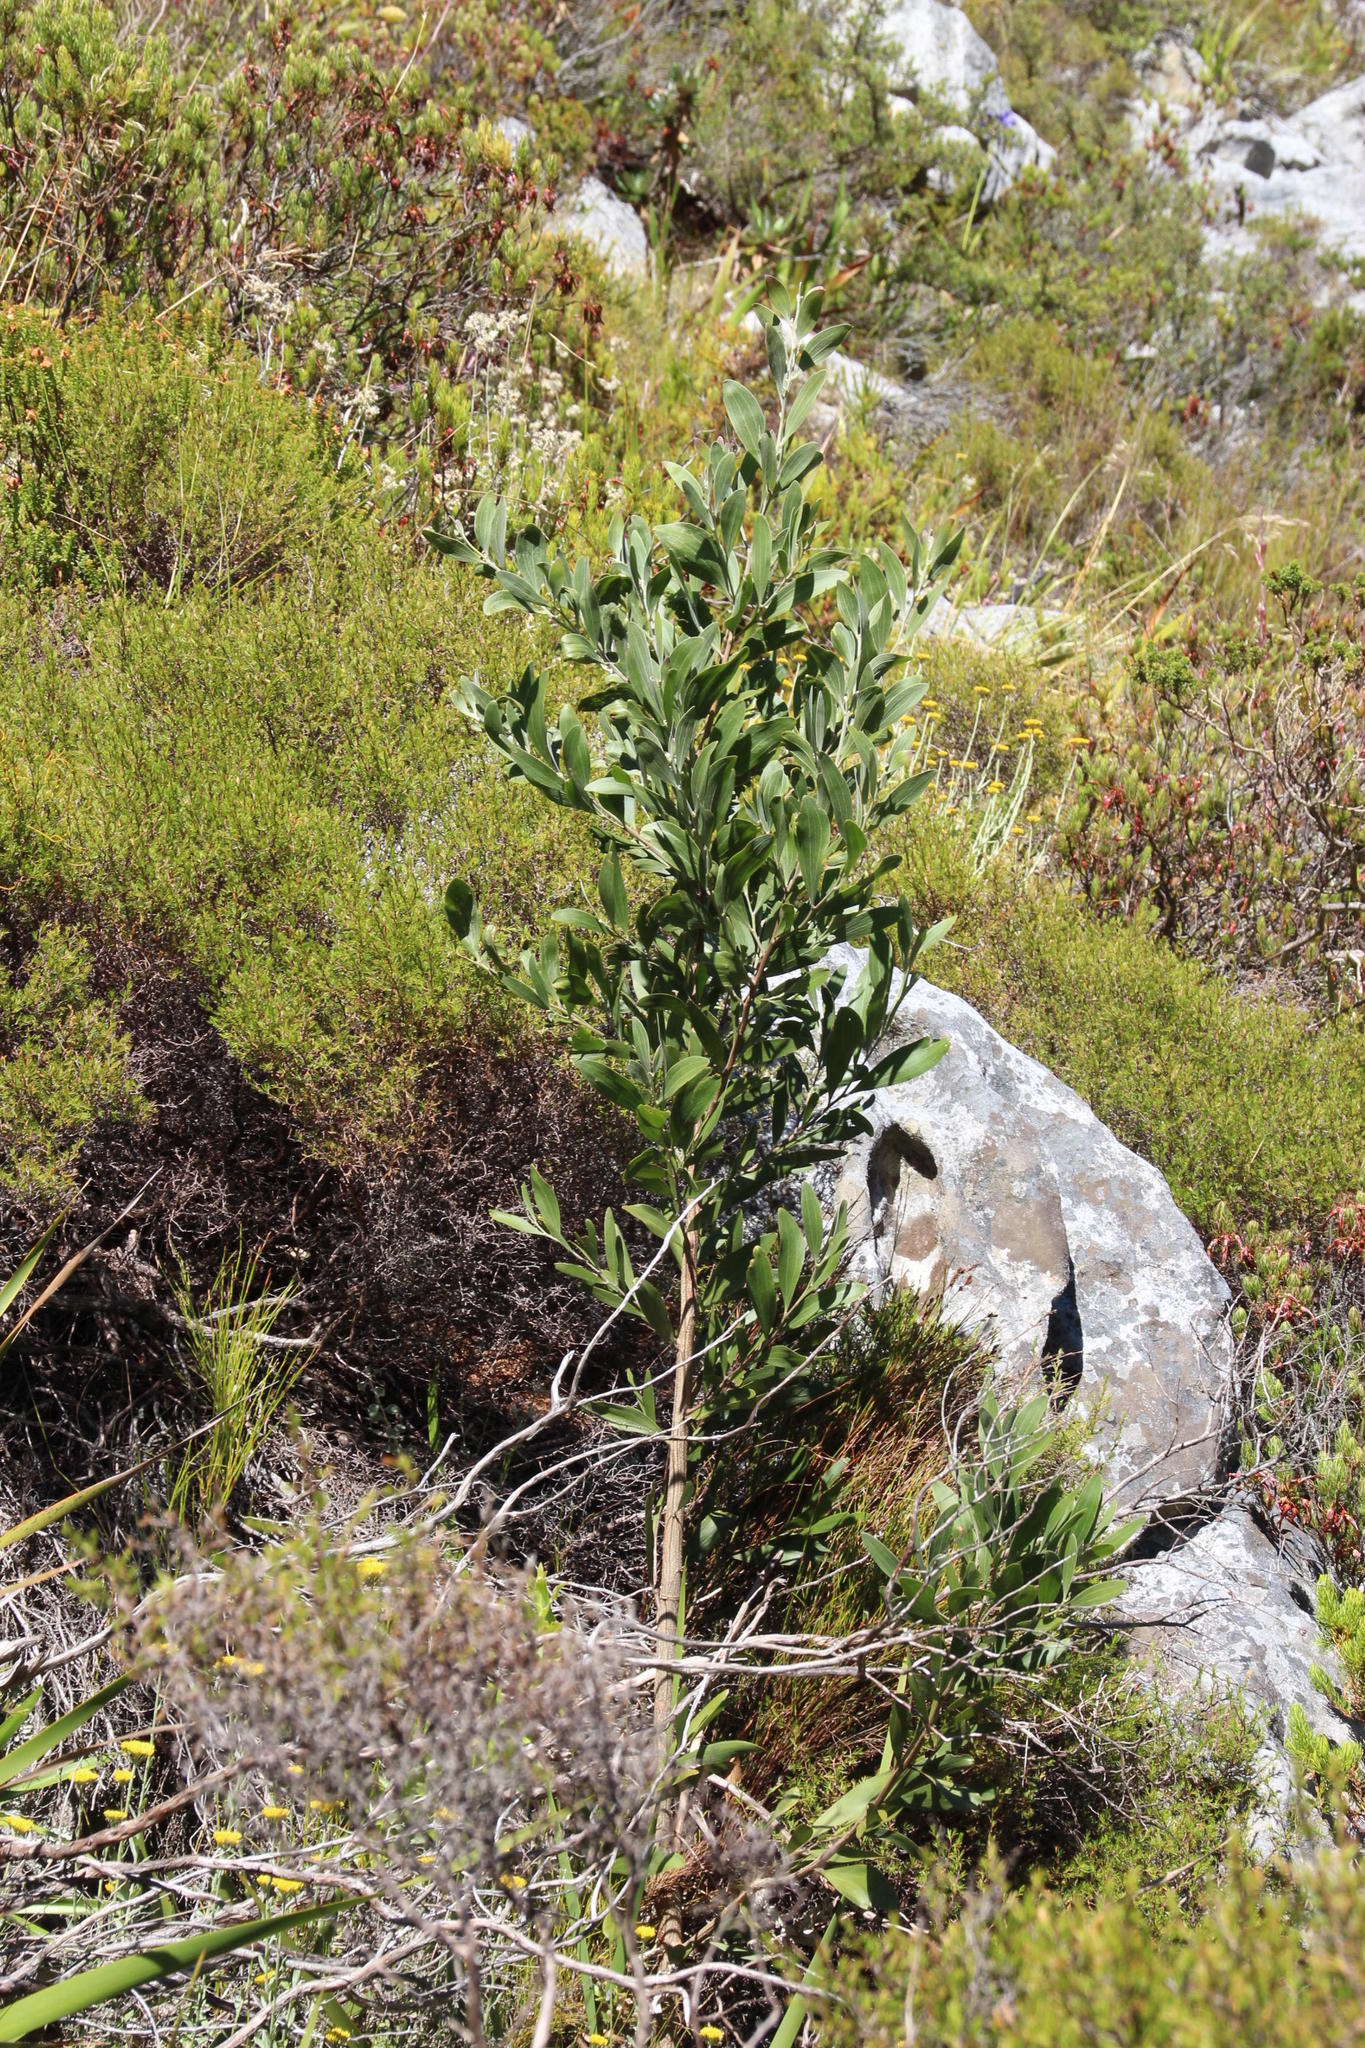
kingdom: Plantae
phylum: Tracheophyta
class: Magnoliopsida
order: Fabales
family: Fabaceae
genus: Acacia
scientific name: Acacia melanoxylon
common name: Blackwood
